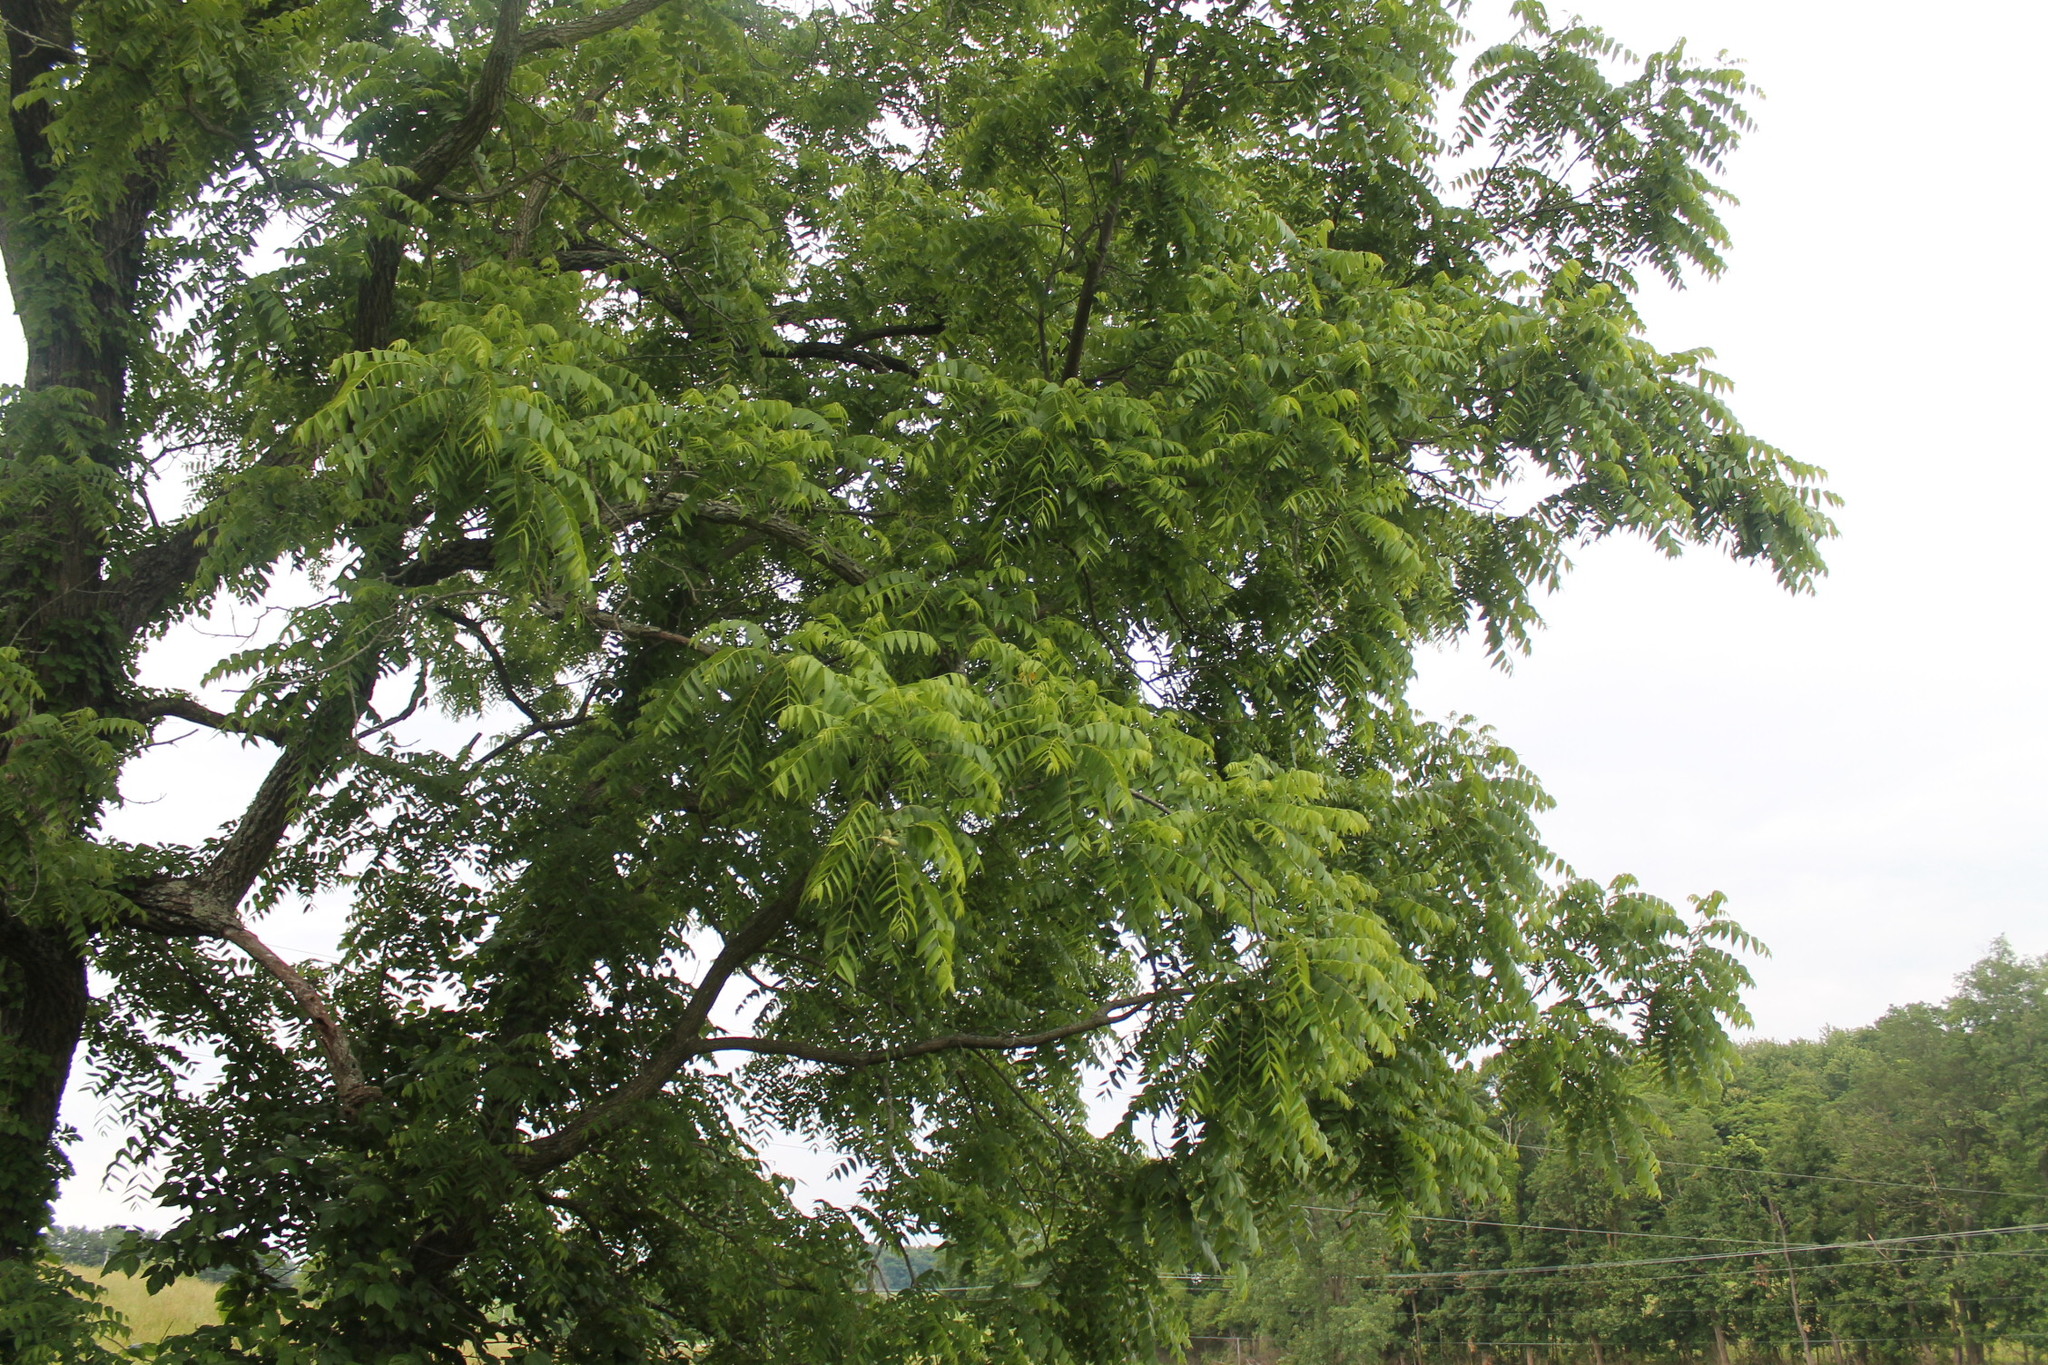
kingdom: Plantae
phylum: Tracheophyta
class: Magnoliopsida
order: Fagales
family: Juglandaceae
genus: Juglans
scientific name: Juglans nigra
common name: Black walnut
